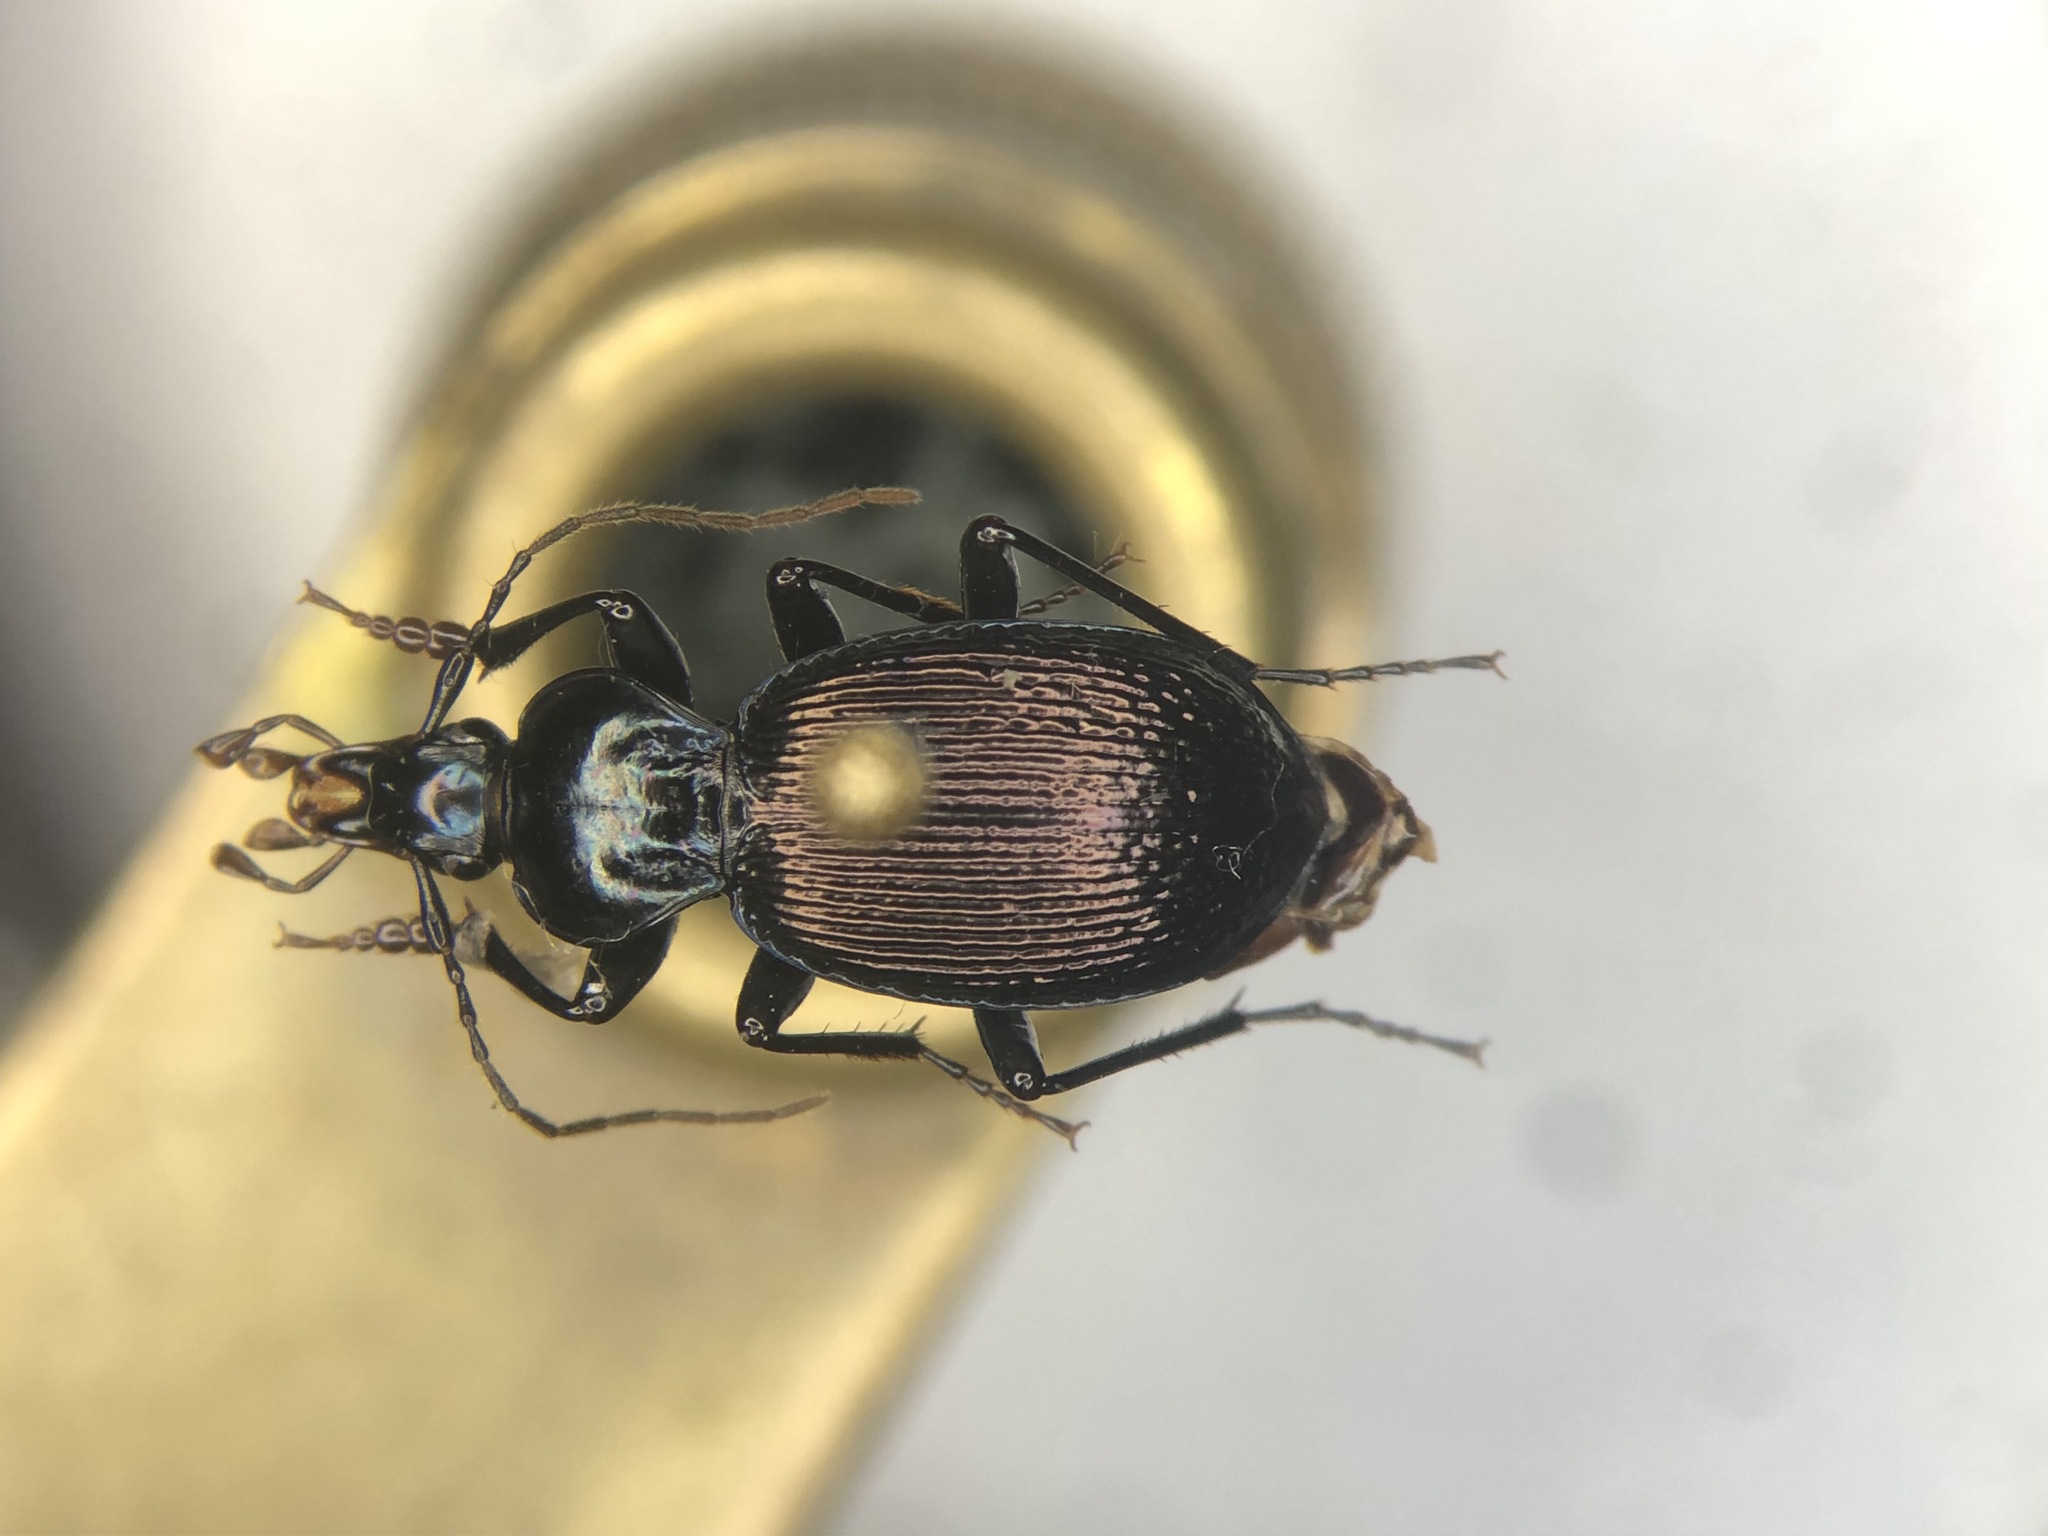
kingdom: Animalia
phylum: Arthropoda
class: Insecta
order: Coleoptera
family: Carabidae
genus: Sphaeroderus
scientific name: Sphaeroderus canadensis
